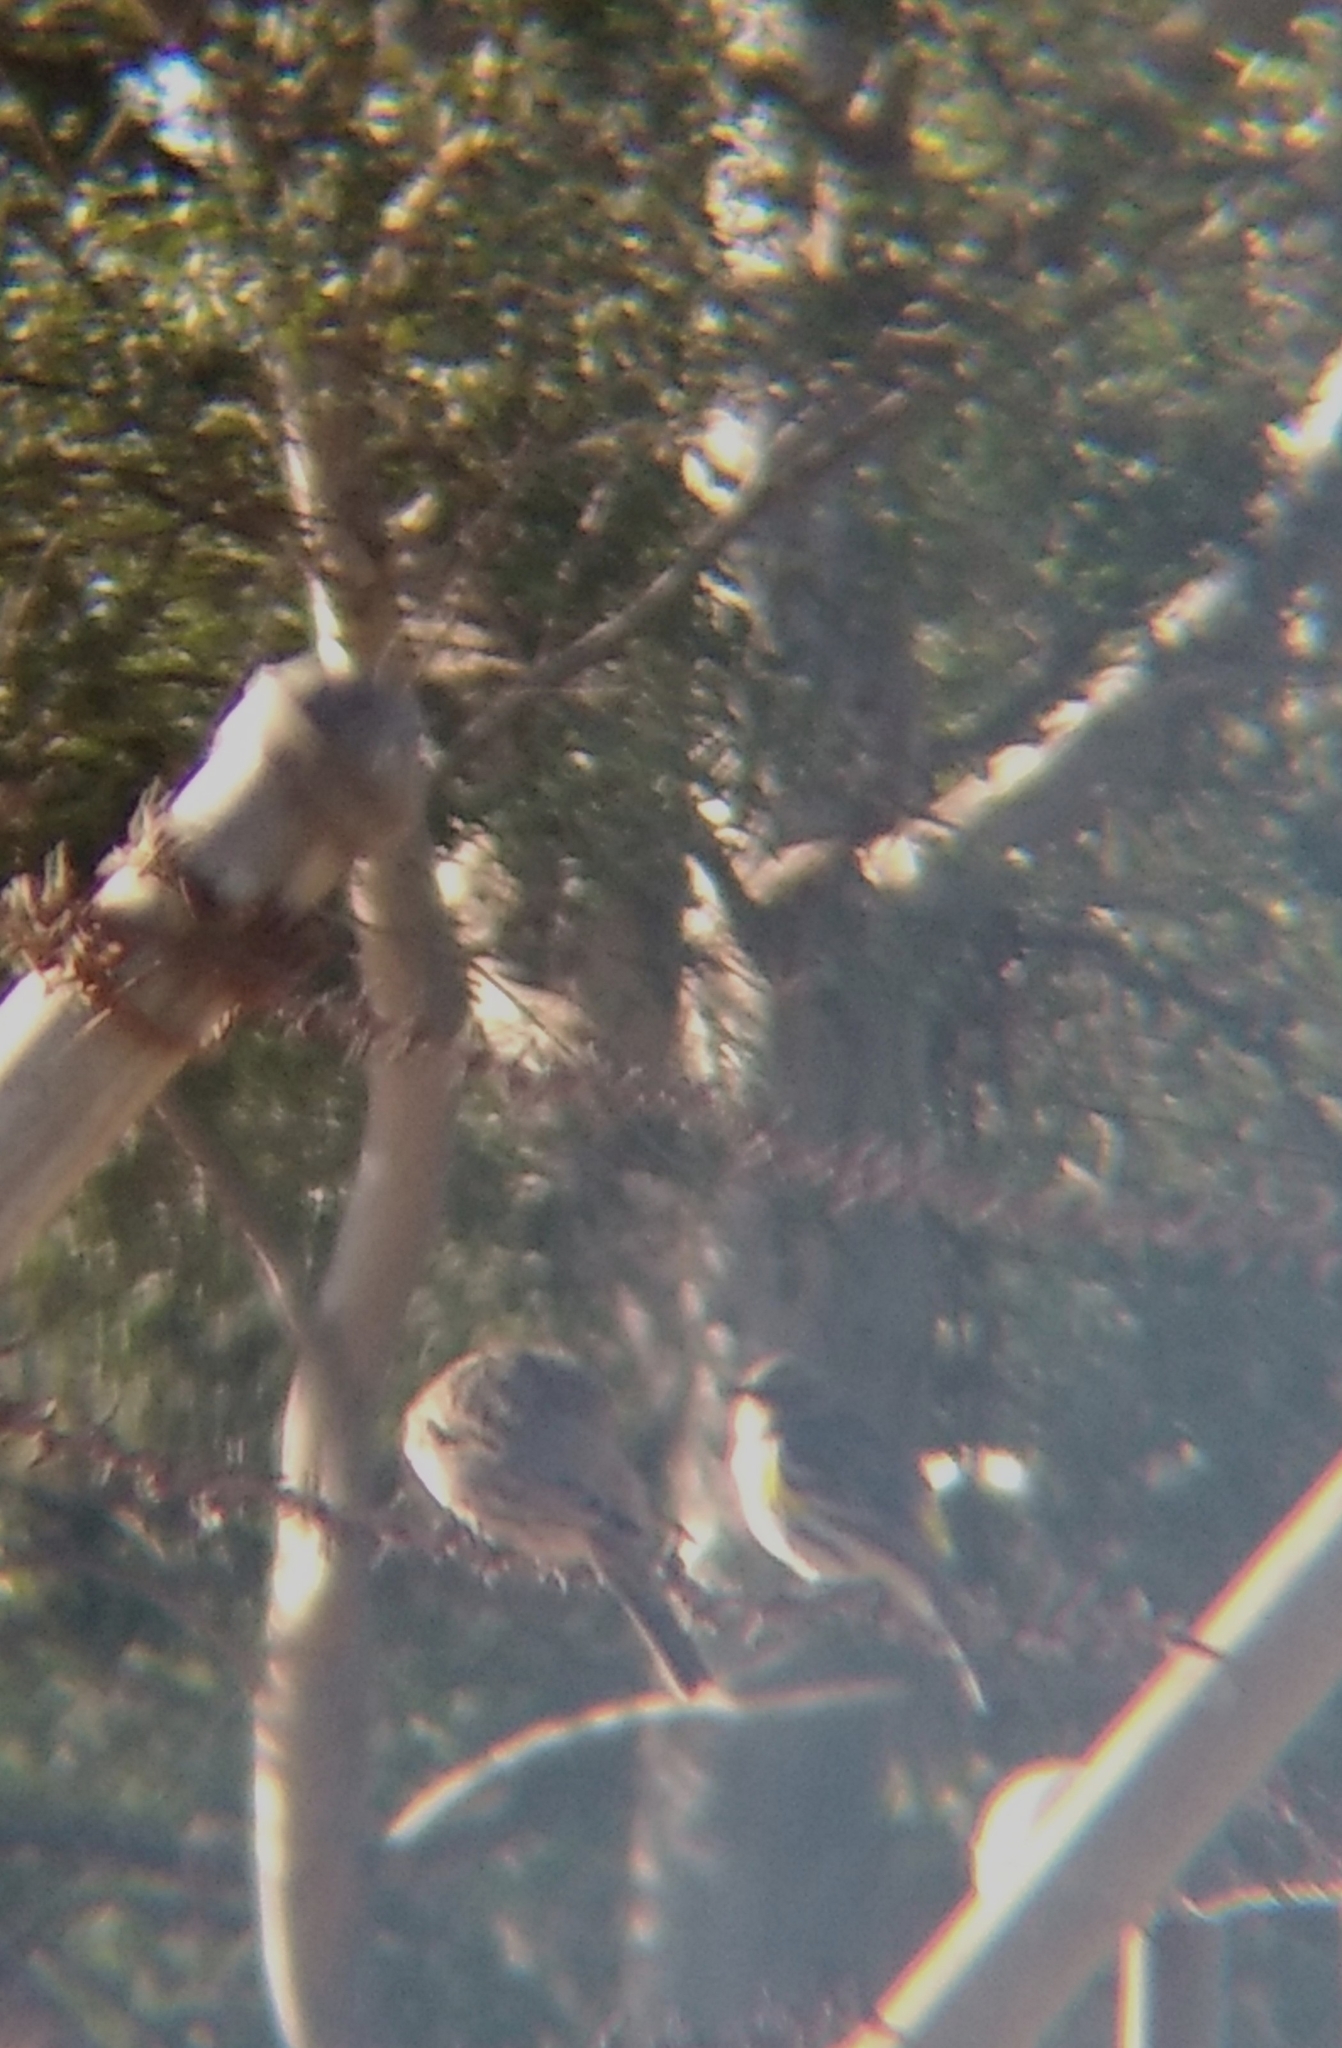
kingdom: Animalia
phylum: Chordata
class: Aves
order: Passeriformes
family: Parulidae
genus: Setophaga
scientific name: Setophaga coronata
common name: Myrtle warbler
